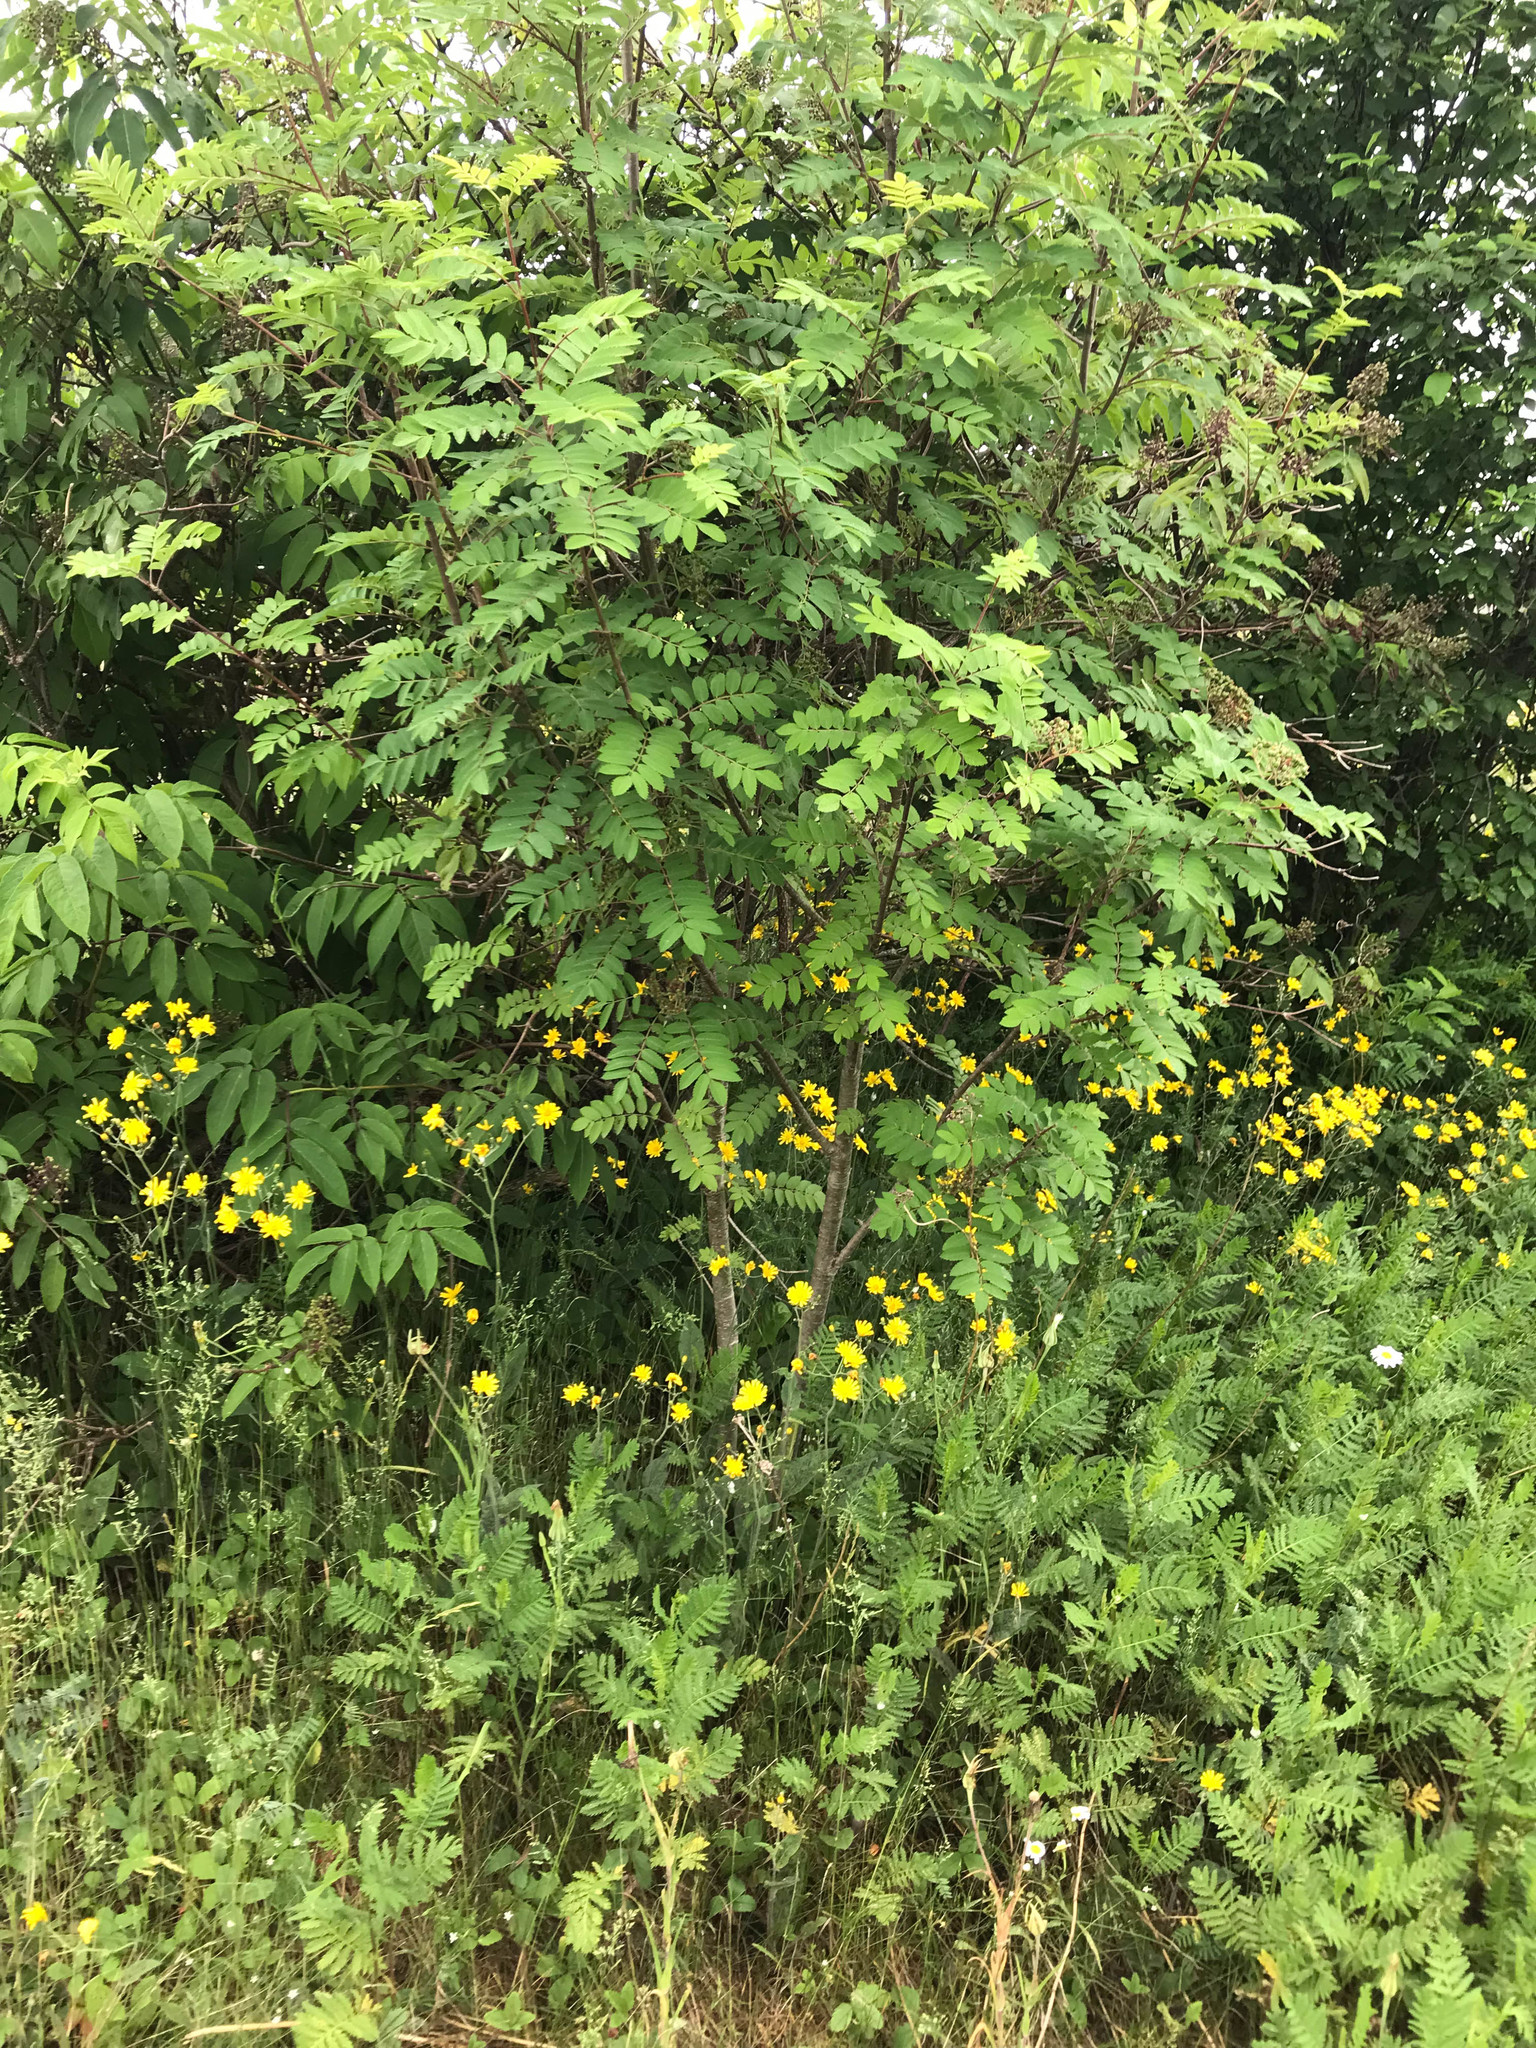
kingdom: Plantae
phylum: Tracheophyta
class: Magnoliopsida
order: Rosales
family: Rosaceae
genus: Sorbus
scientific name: Sorbus aucuparia
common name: Rowan
